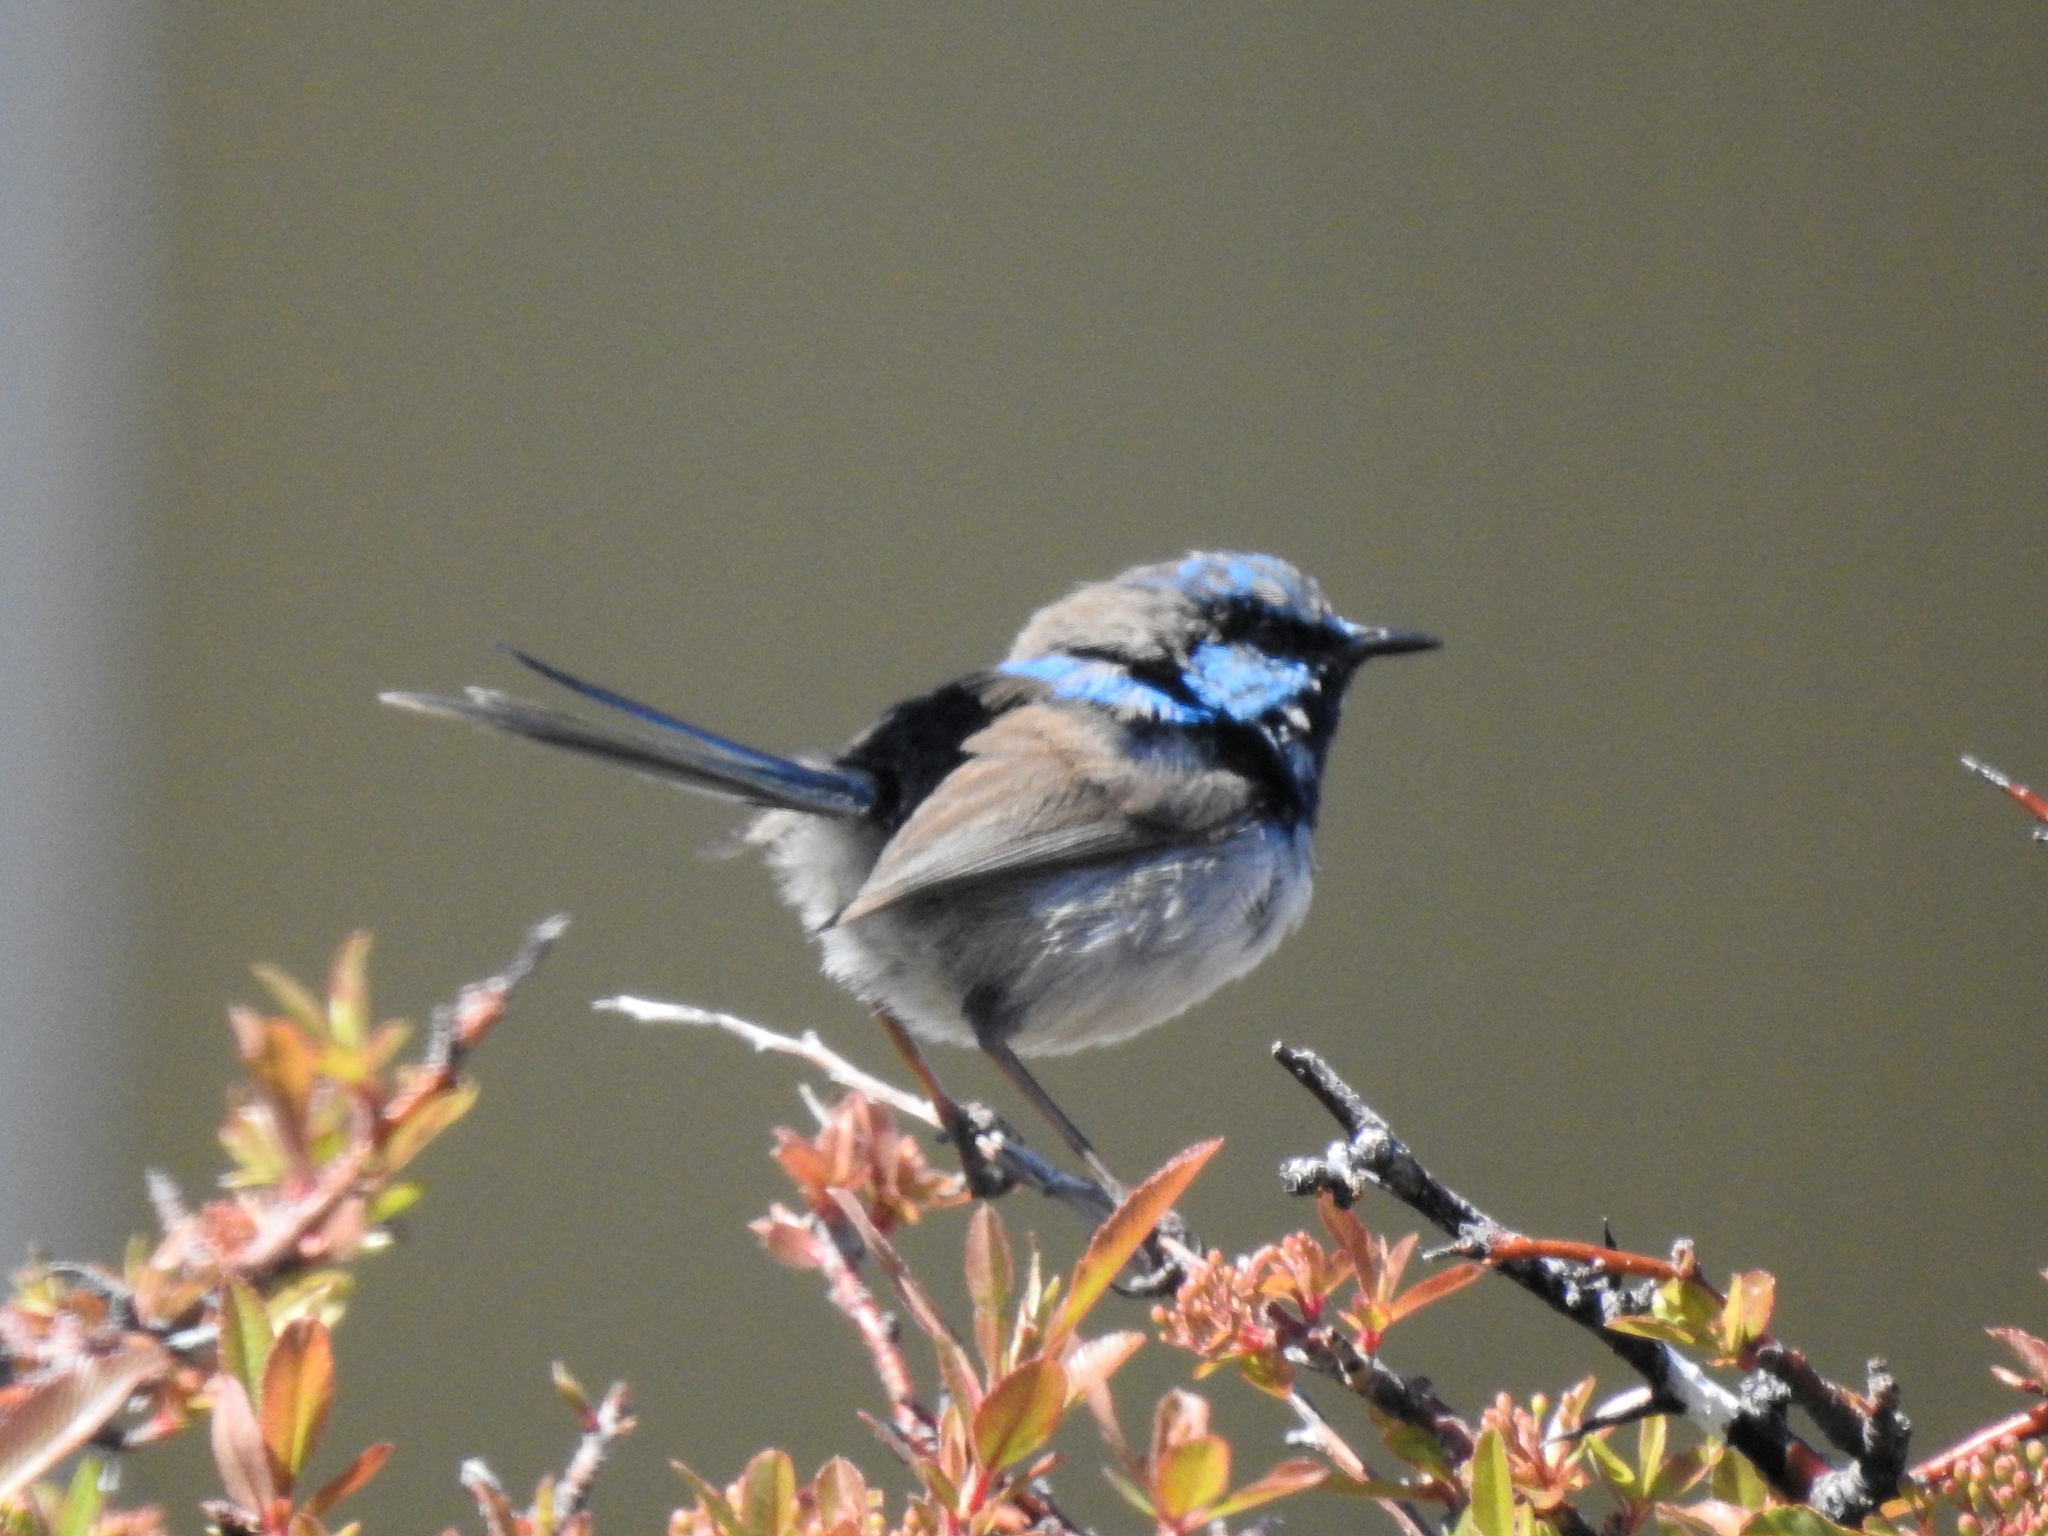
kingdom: Animalia
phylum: Chordata
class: Aves
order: Passeriformes
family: Maluridae
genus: Malurus
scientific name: Malurus cyaneus
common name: Superb fairywren
